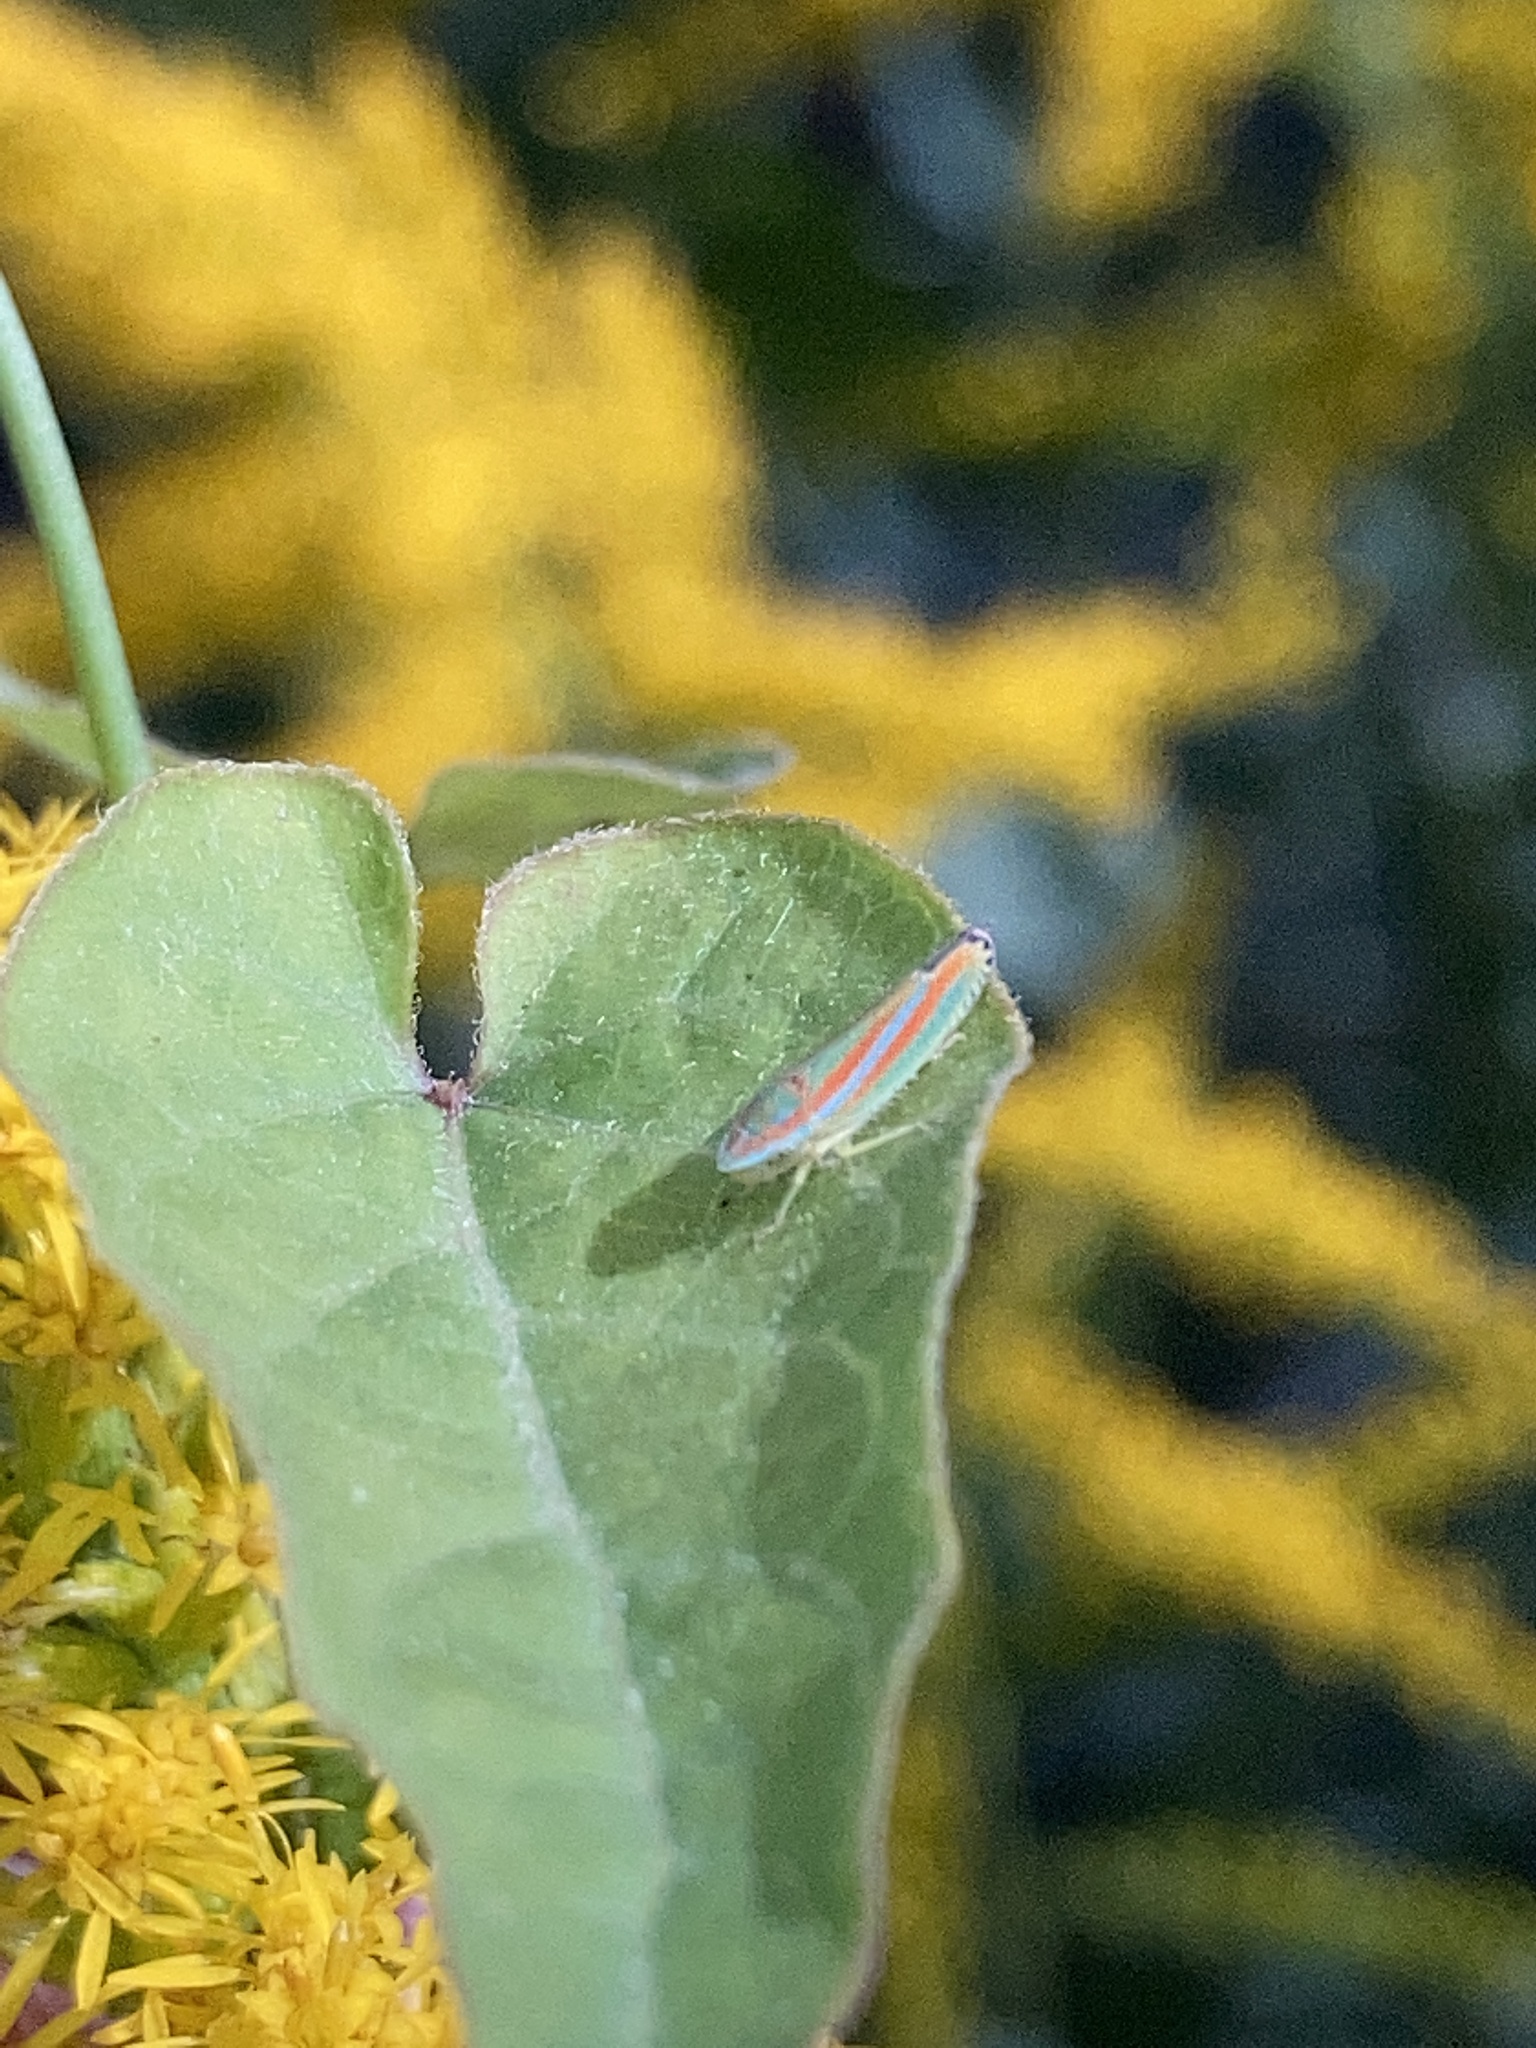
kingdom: Animalia
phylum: Arthropoda
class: Insecta
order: Hemiptera
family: Cicadellidae
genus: Graphocephala
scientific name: Graphocephala versuta
